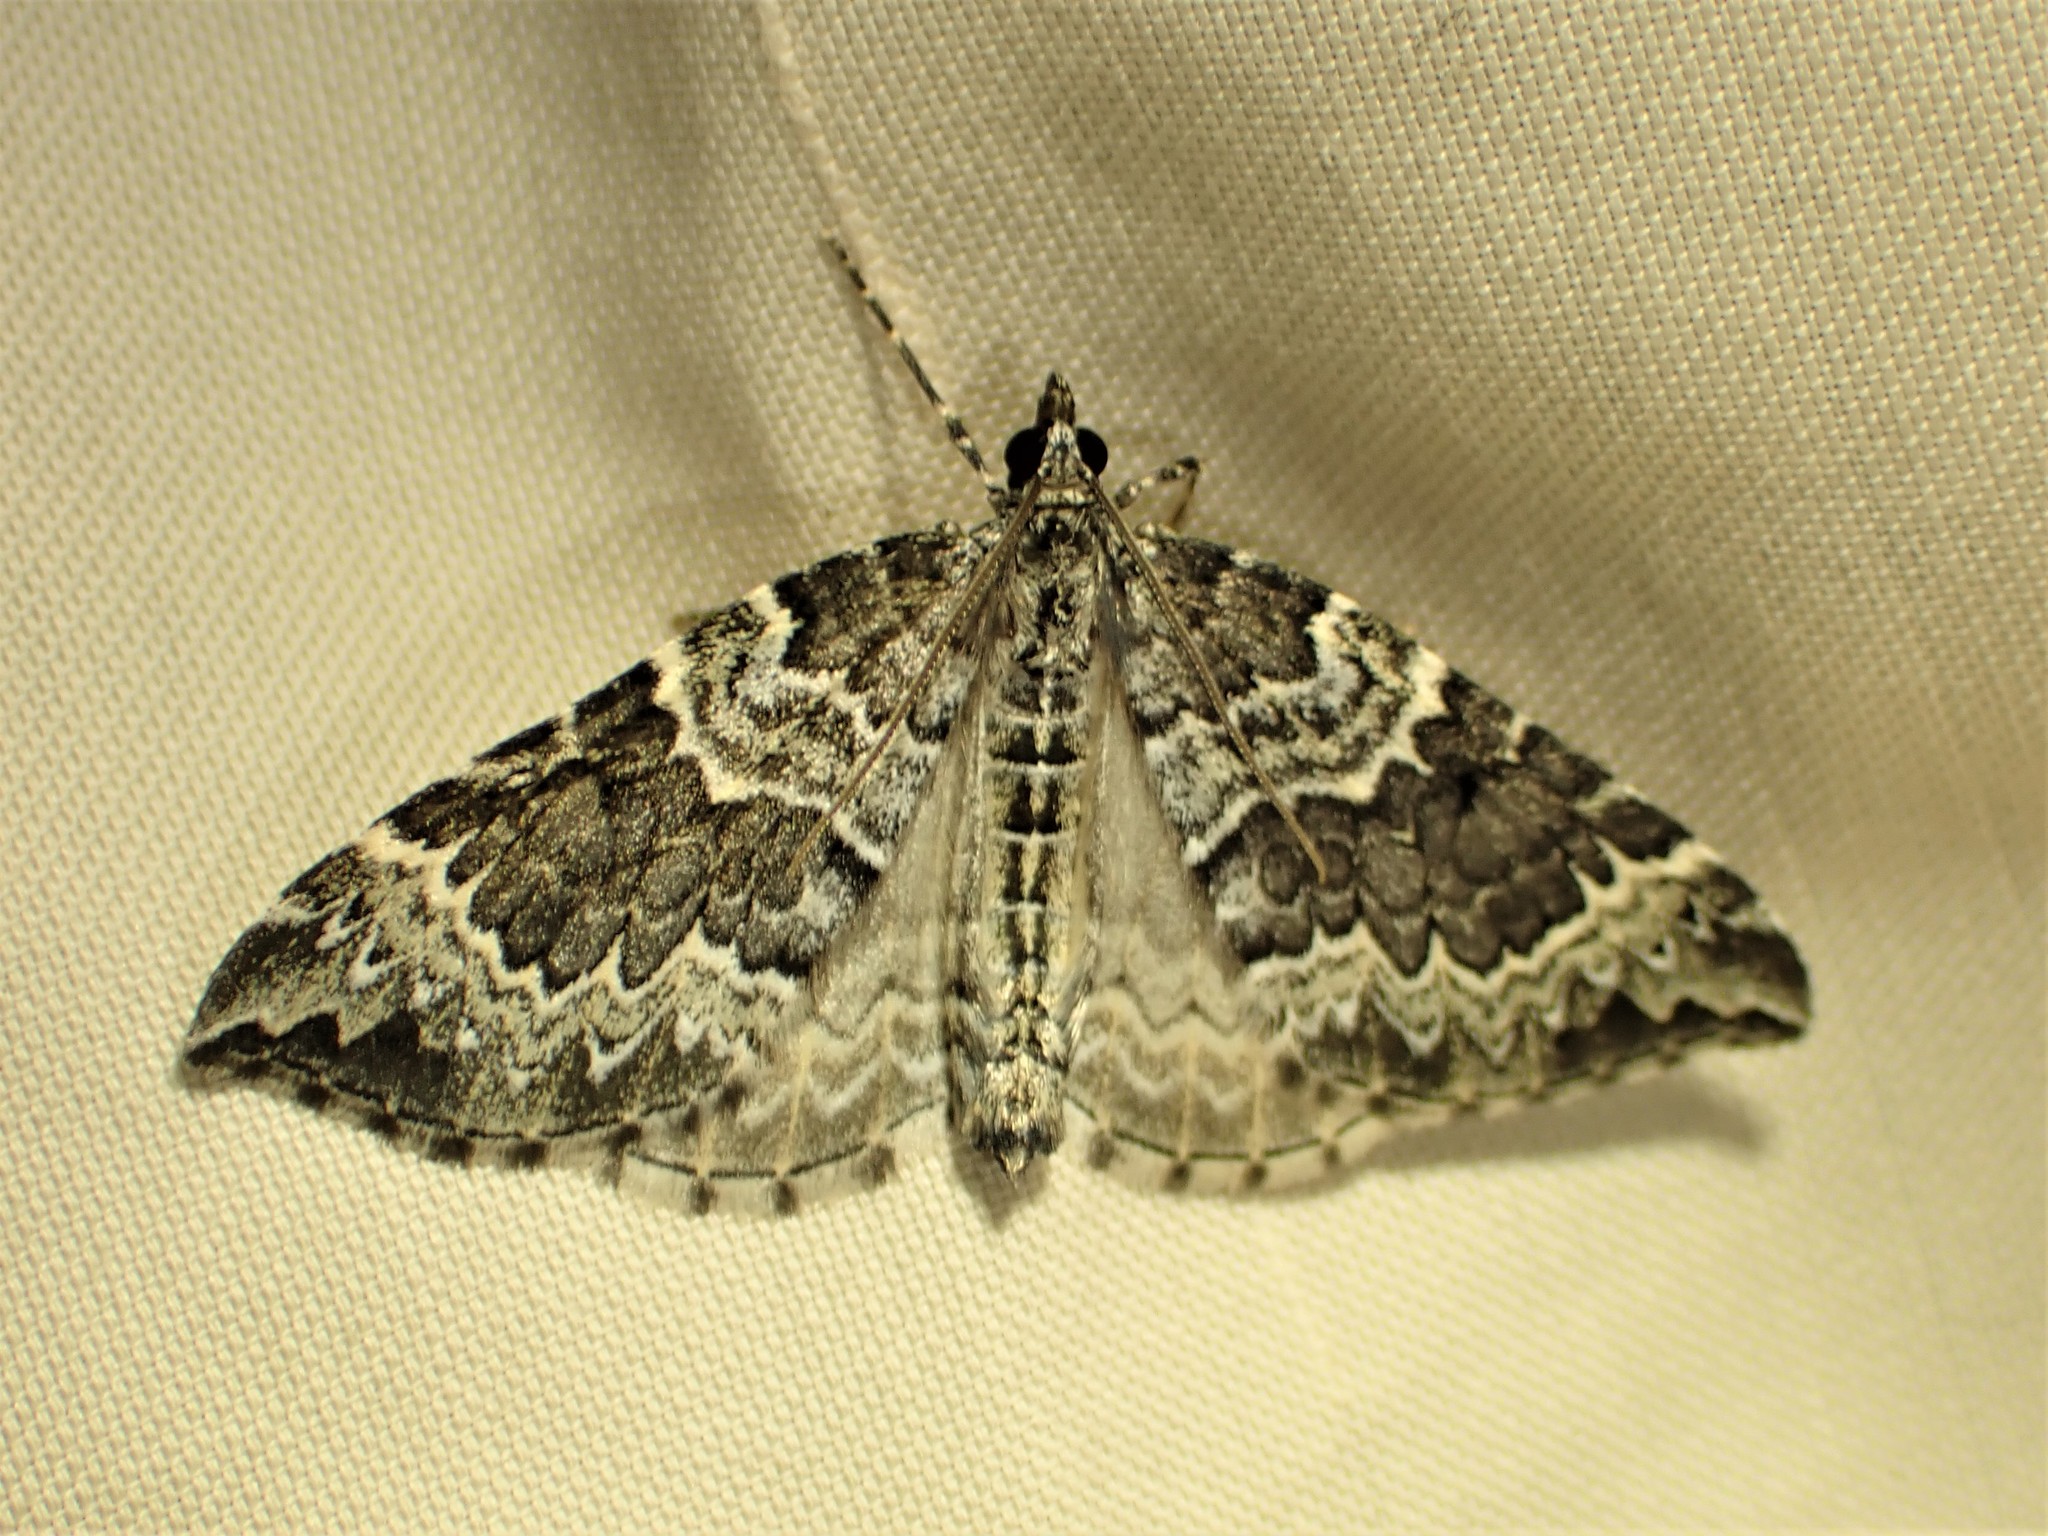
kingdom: Animalia
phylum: Arthropoda
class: Insecta
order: Lepidoptera
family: Geometridae
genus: Eulithis
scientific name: Eulithis explanata
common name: White eulithis
